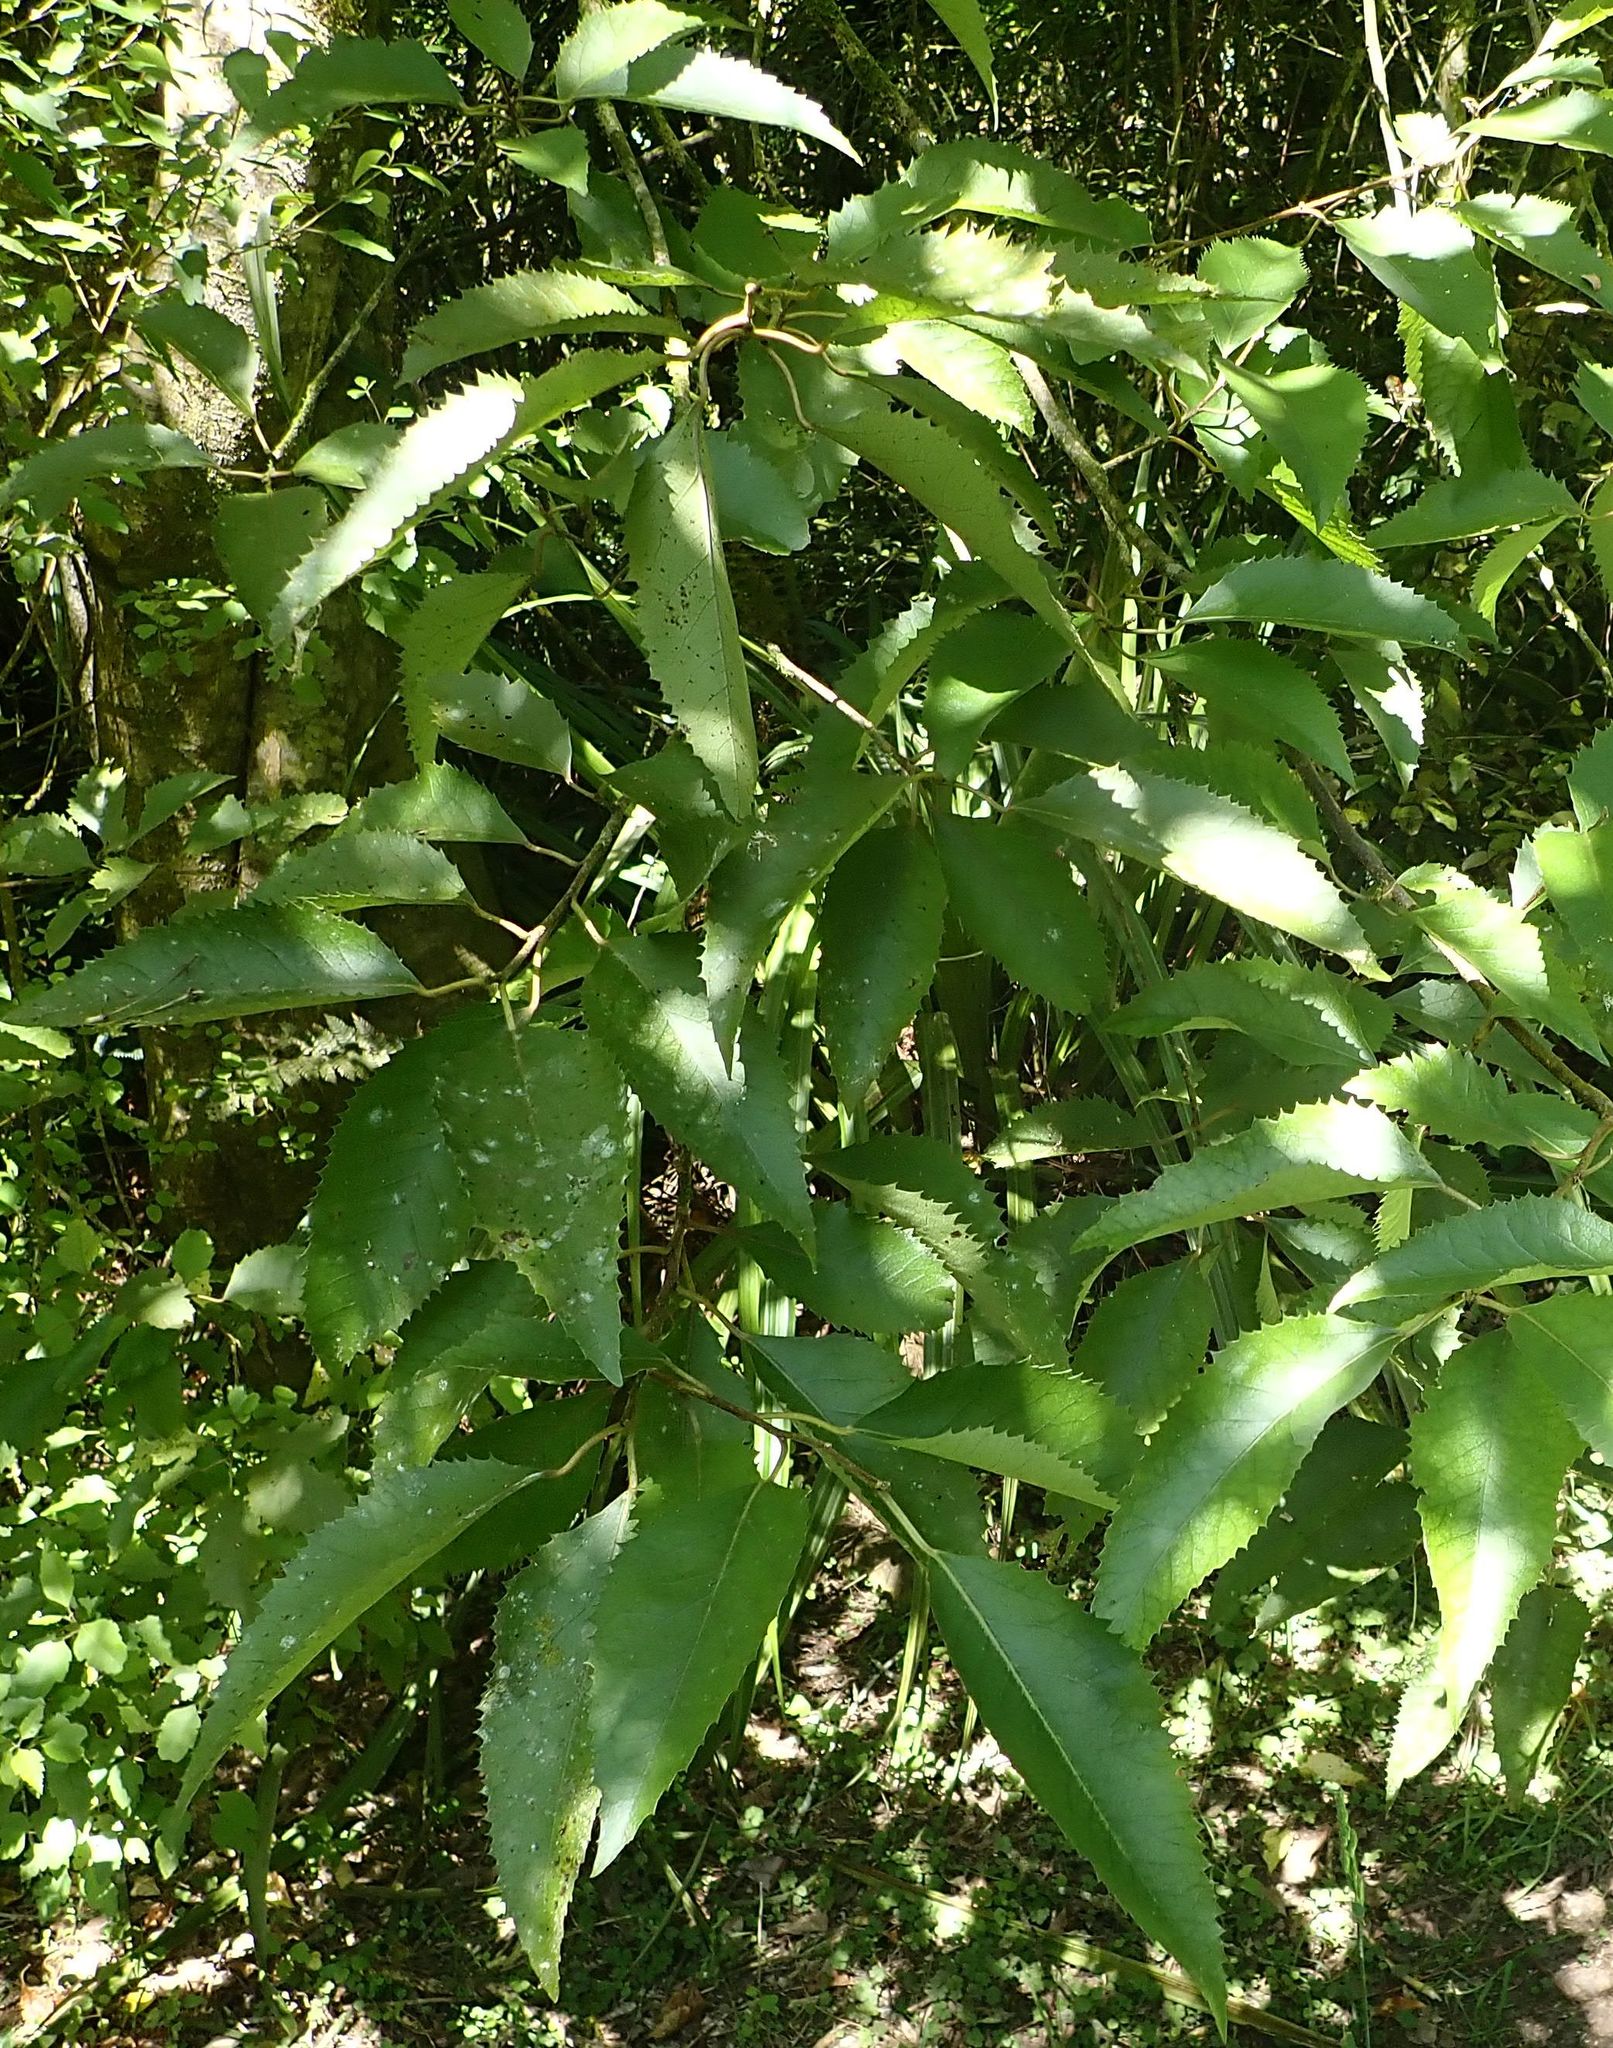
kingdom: Plantae
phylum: Tracheophyta
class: Magnoliopsida
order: Malvales
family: Malvaceae
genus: Hoheria
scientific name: Hoheria populnea
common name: Lacebark
